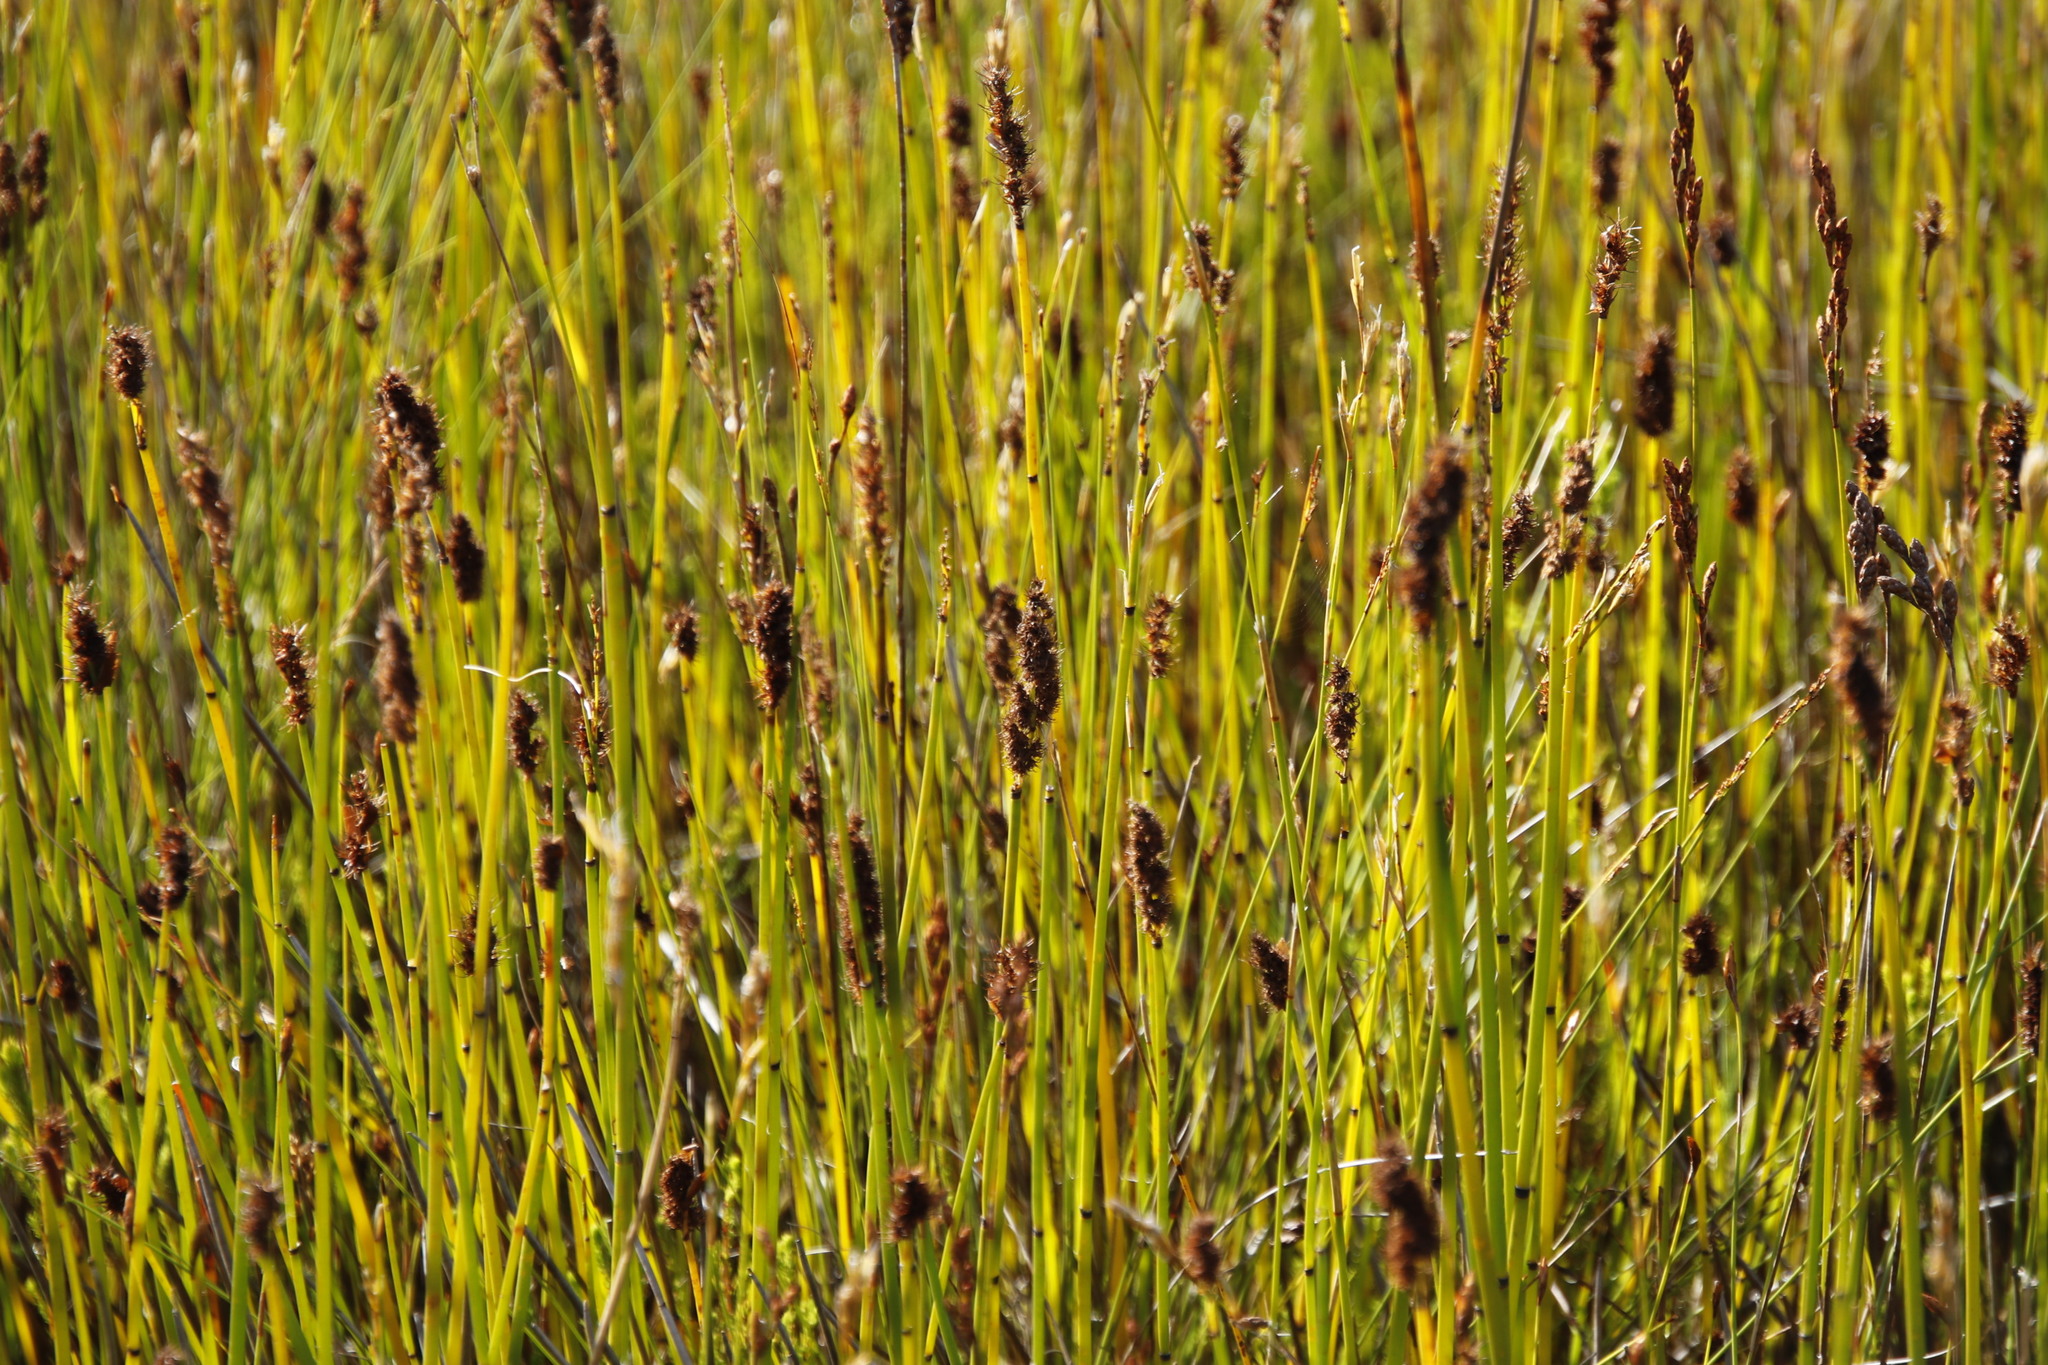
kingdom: Plantae
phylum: Tracheophyta
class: Liliopsida
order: Poales
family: Restionaceae
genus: Elegia
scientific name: Elegia cuspidata
